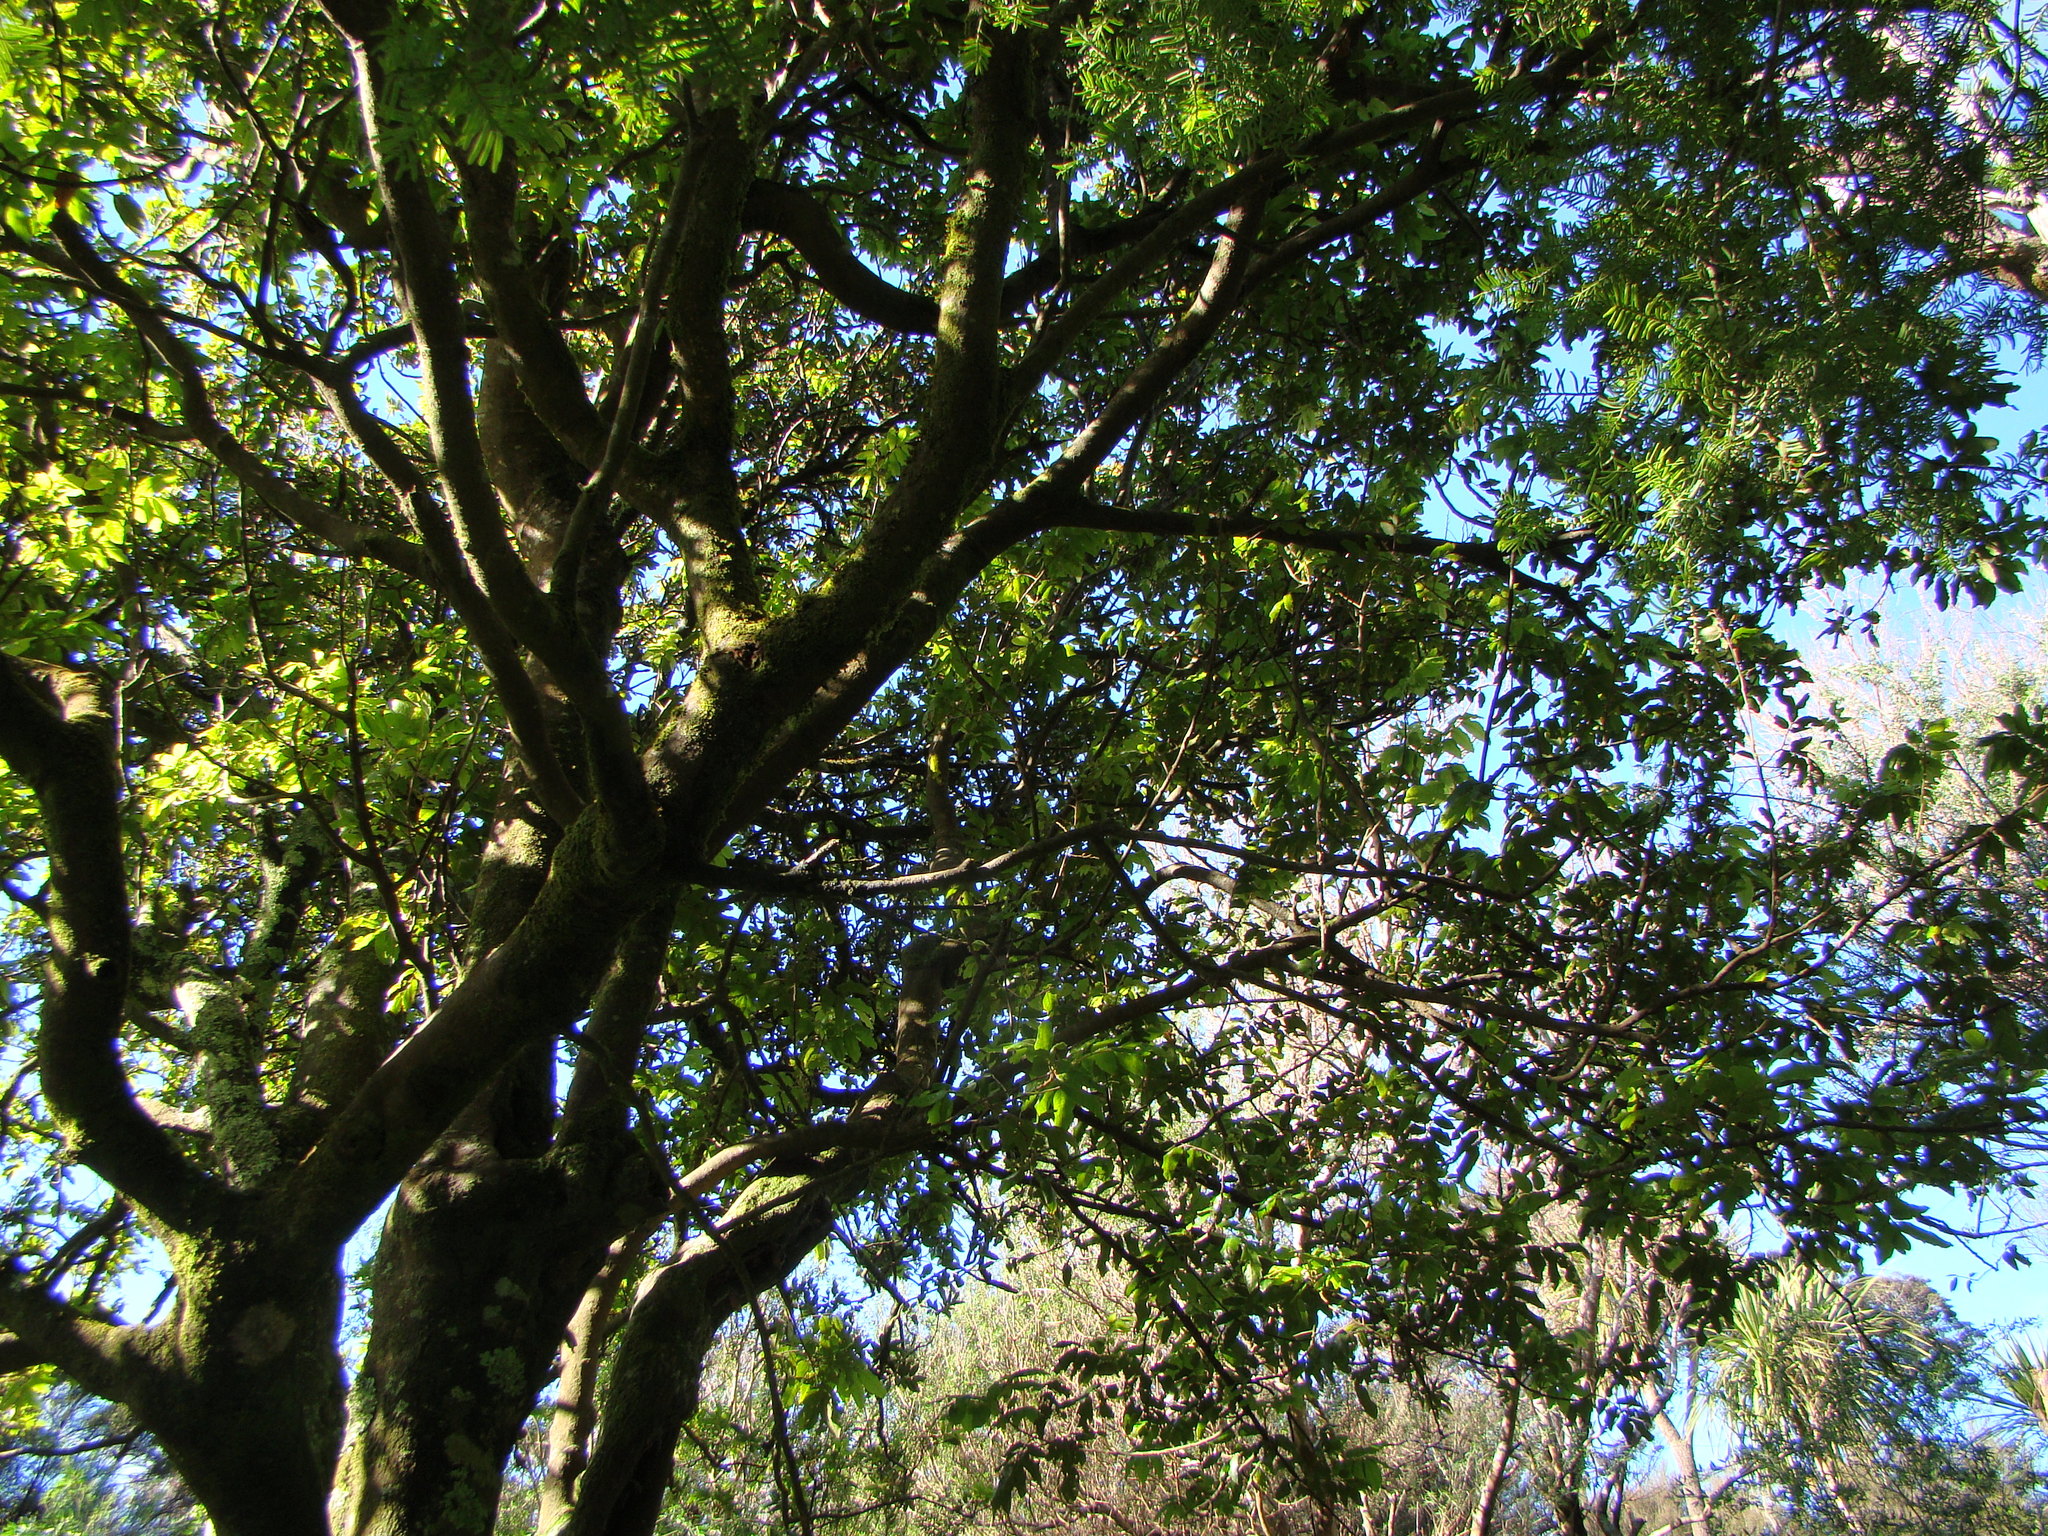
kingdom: Plantae
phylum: Tracheophyta
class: Magnoliopsida
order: Sapindales
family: Sapindaceae
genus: Alectryon
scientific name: Alectryon excelsus
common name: Three kings titoki
